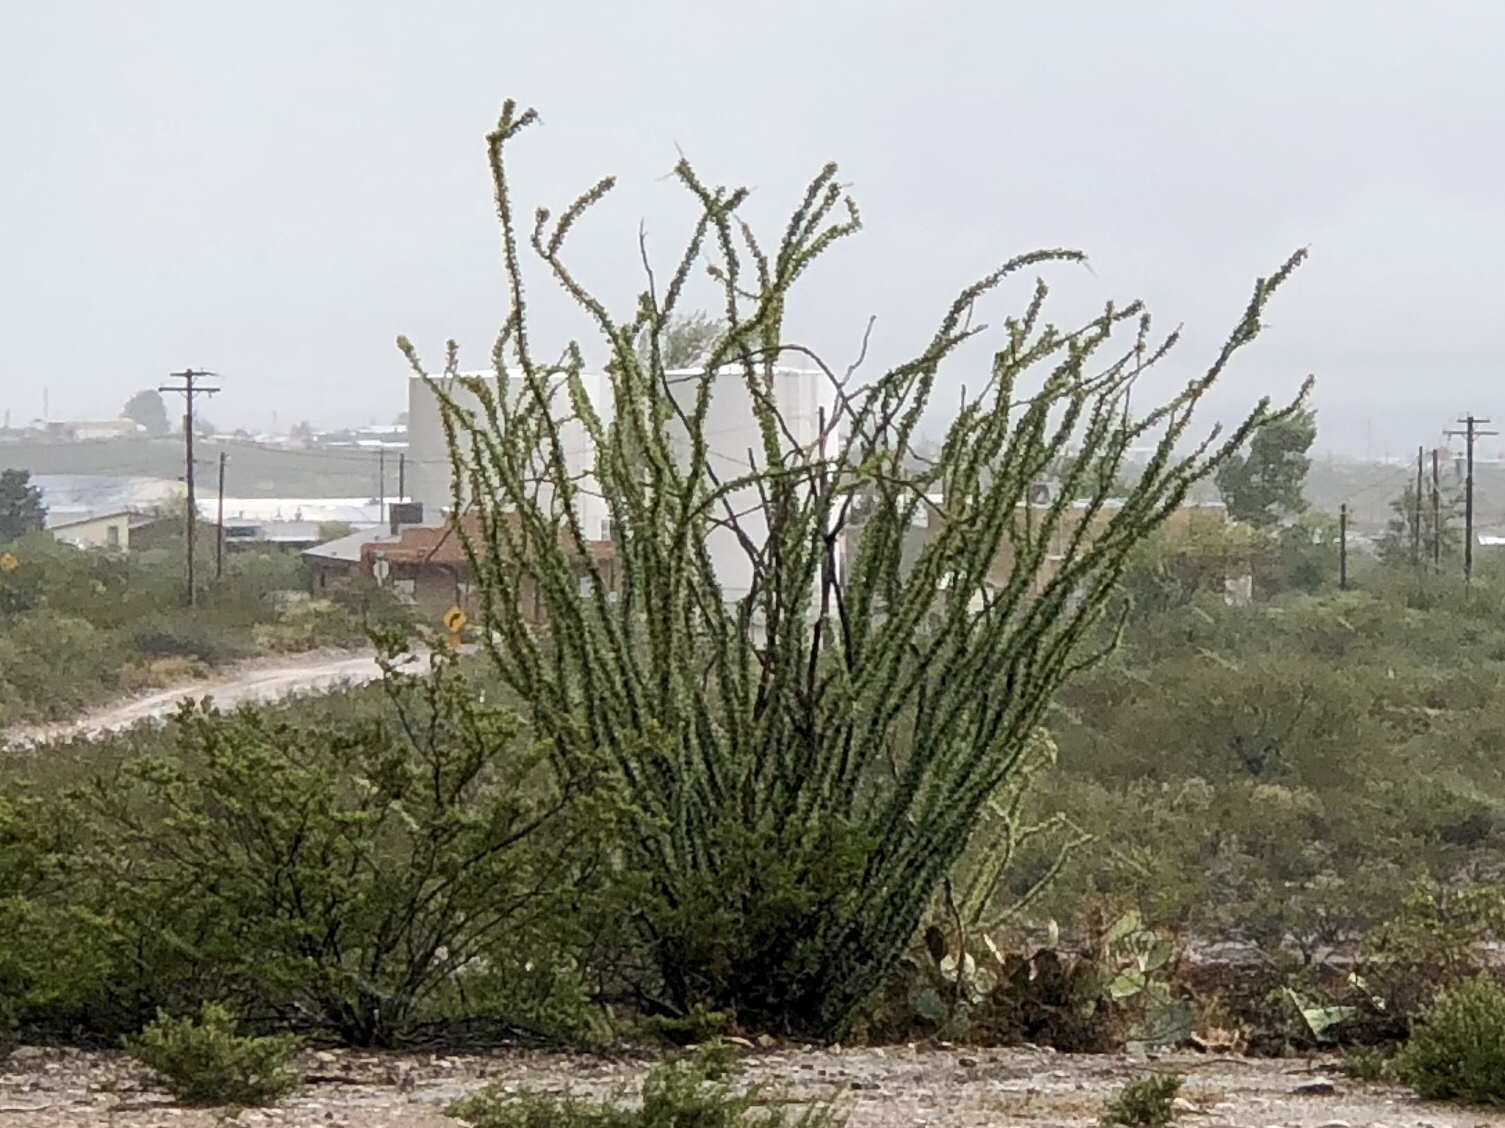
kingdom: Plantae
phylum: Tracheophyta
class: Magnoliopsida
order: Ericales
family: Fouquieriaceae
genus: Fouquieria
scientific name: Fouquieria splendens
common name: Vine-cactus
